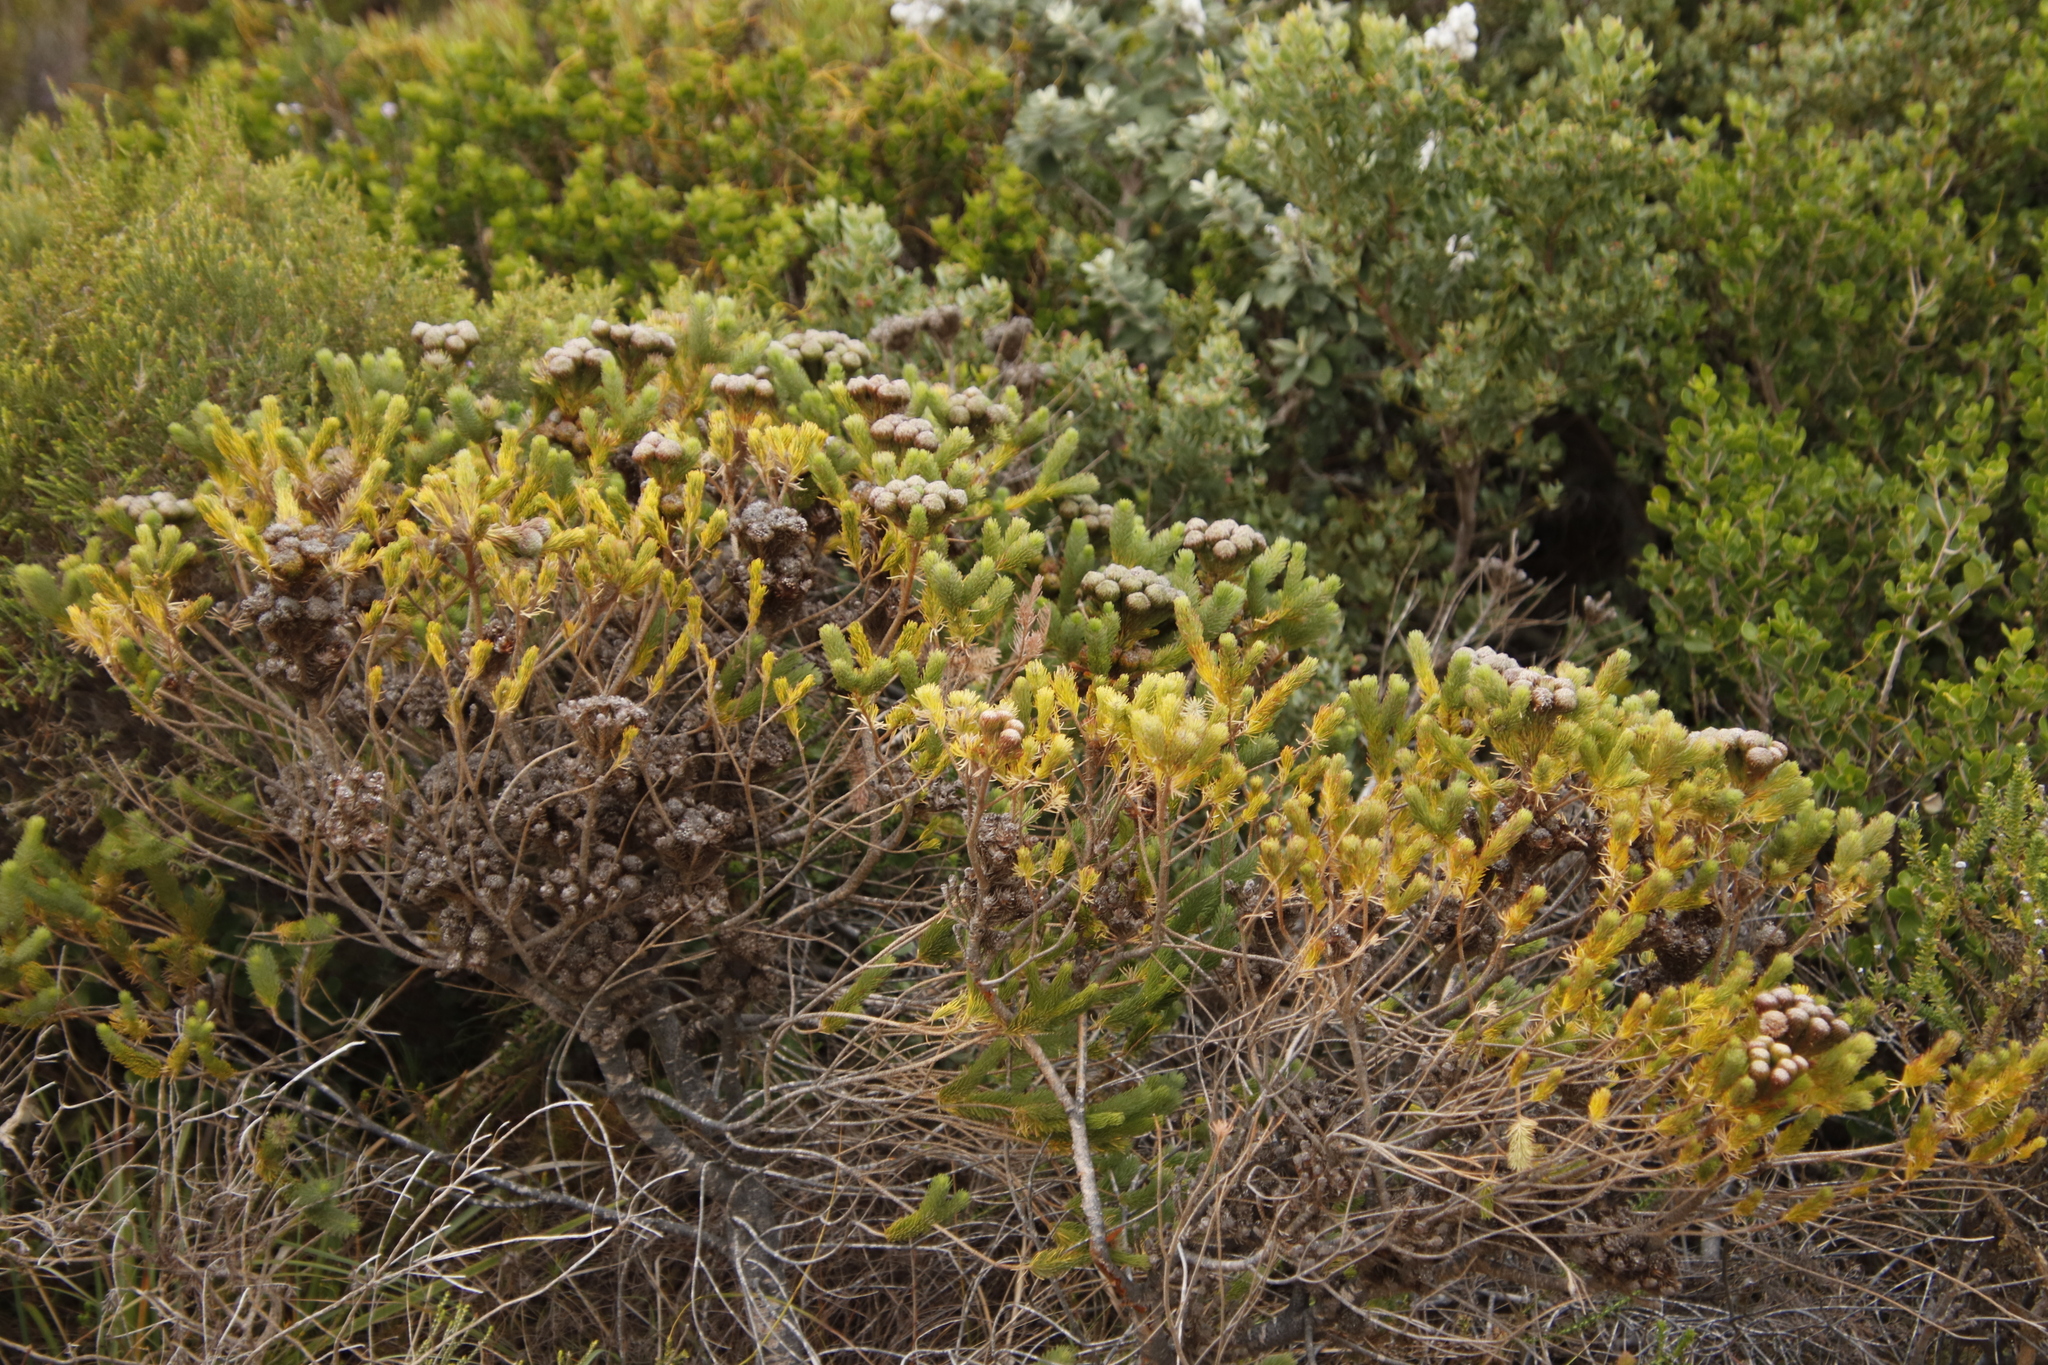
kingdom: Plantae
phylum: Tracheophyta
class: Magnoliopsida
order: Bruniales
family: Bruniaceae
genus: Berzelia
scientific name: Berzelia albiflora
